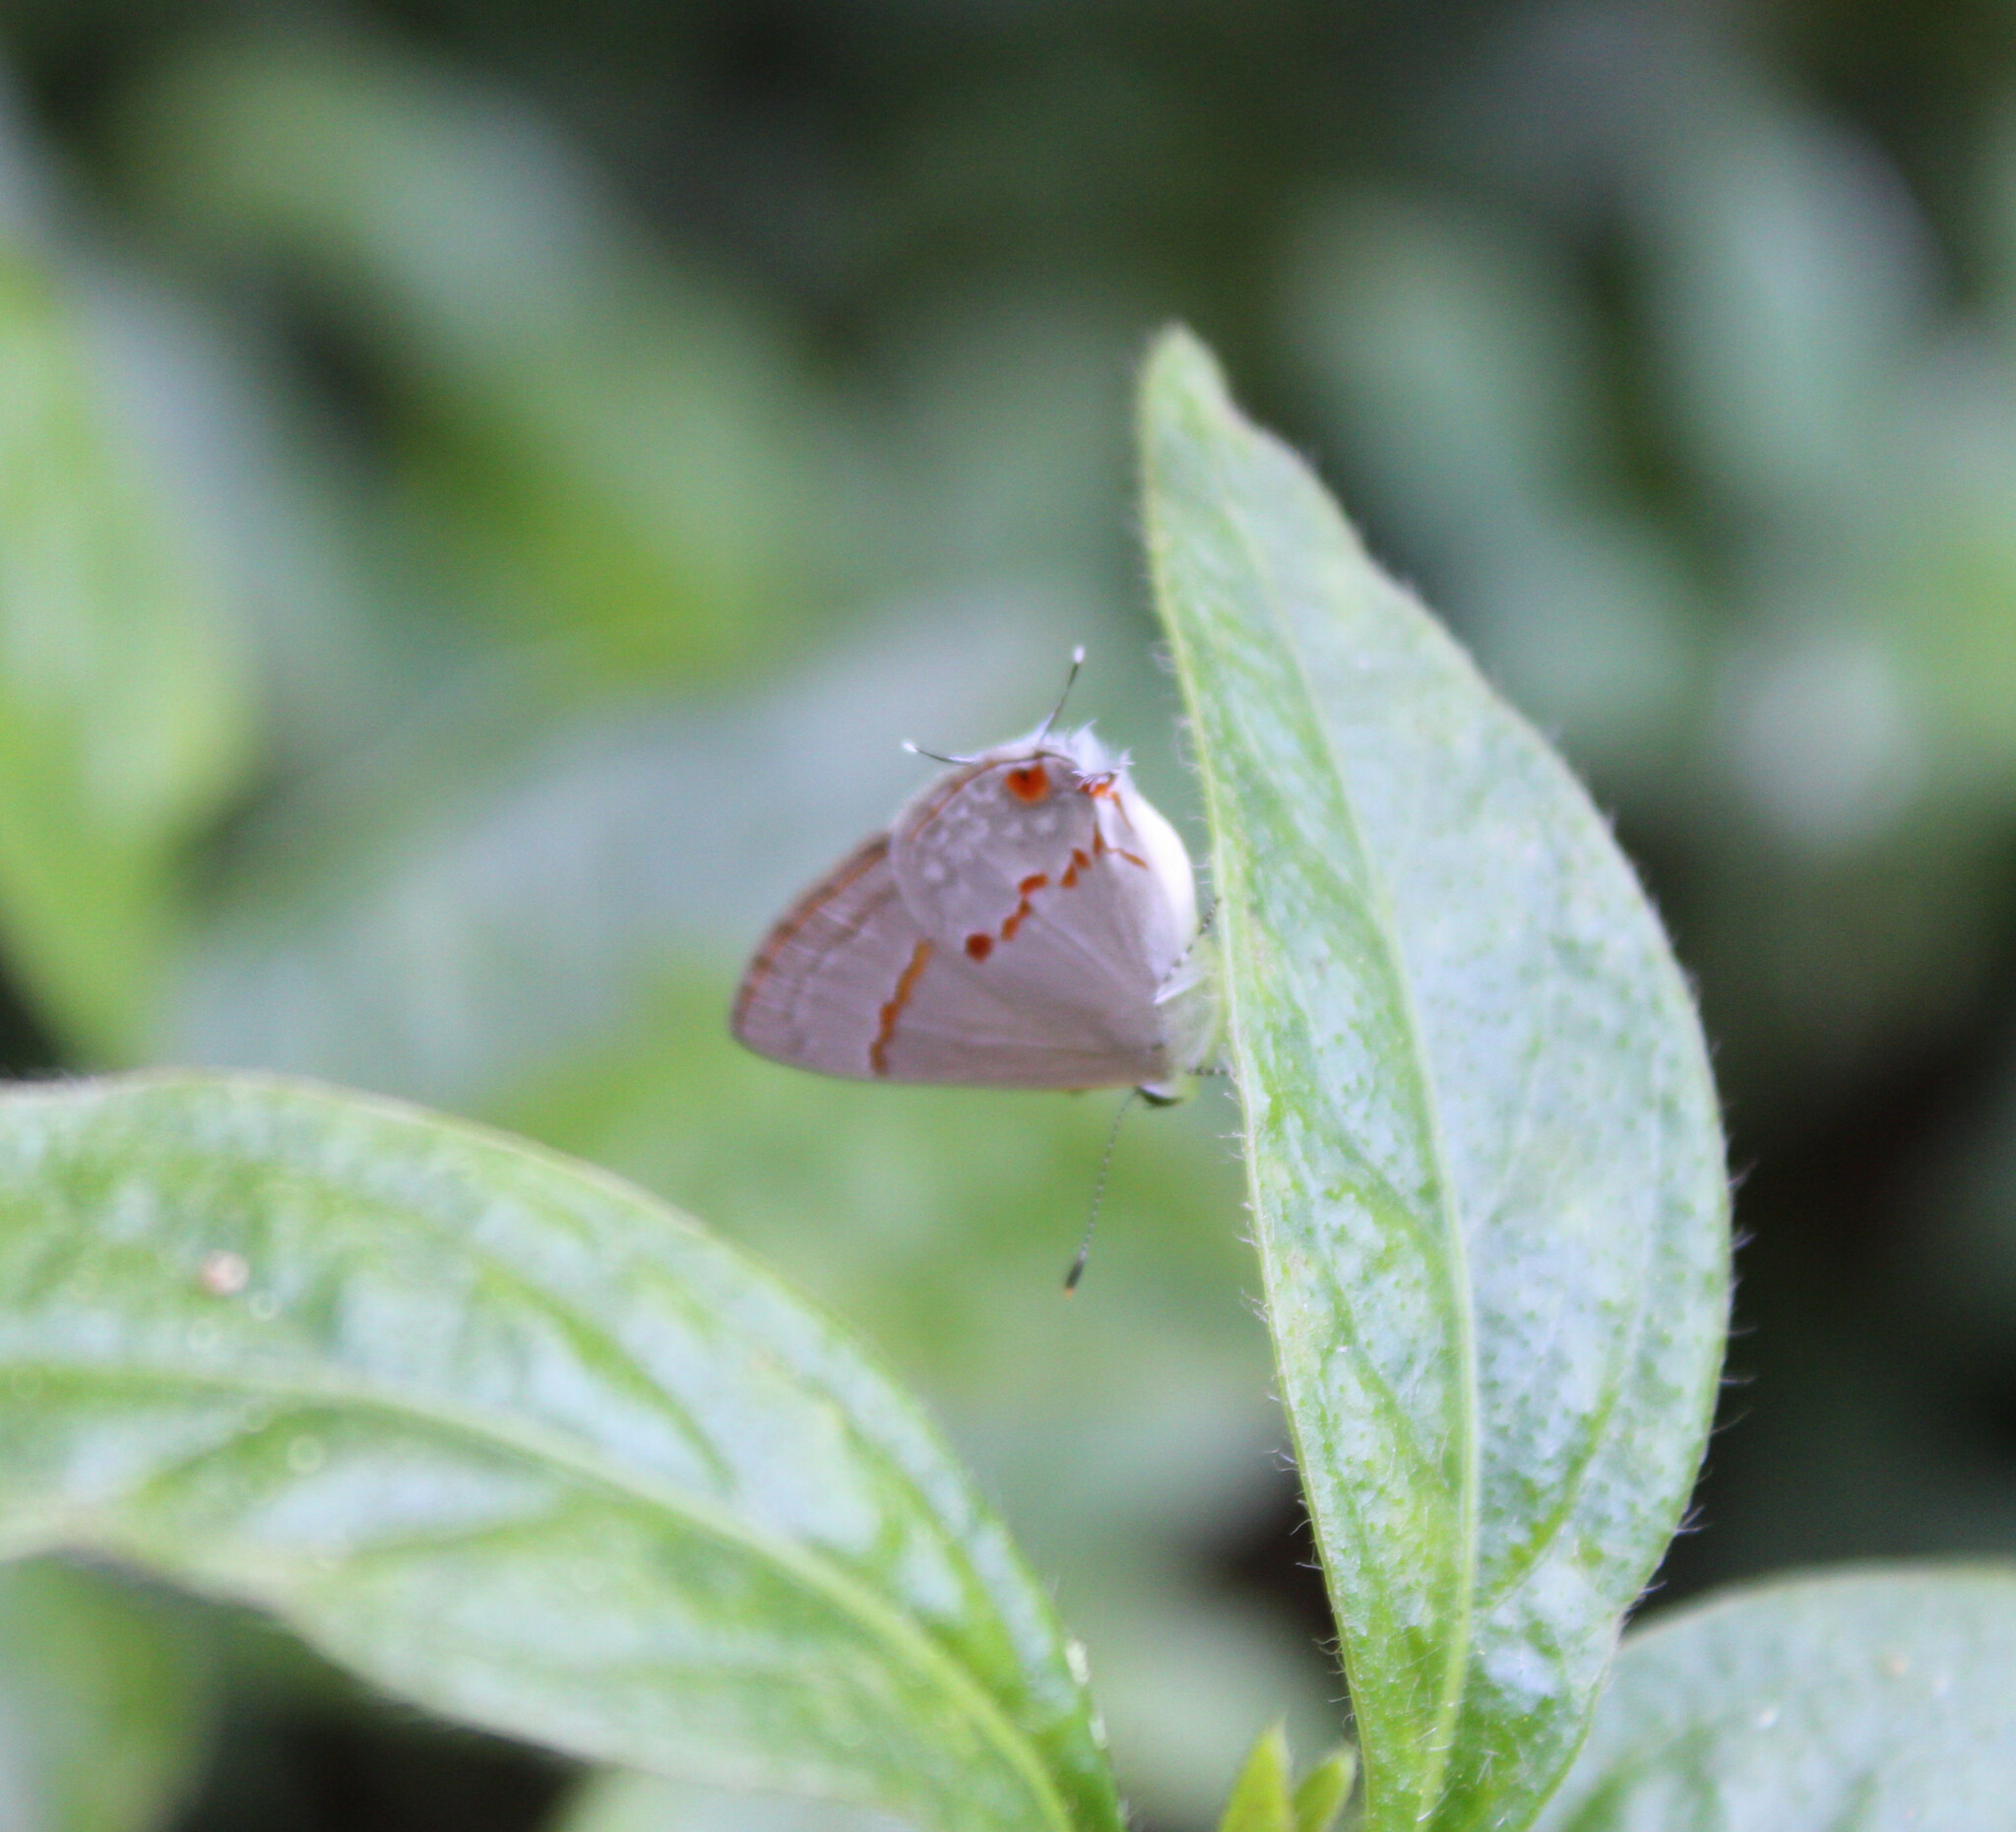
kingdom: Animalia
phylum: Arthropoda
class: Insecta
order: Lepidoptera
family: Lycaenidae
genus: Thecla
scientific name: Thecla azia
